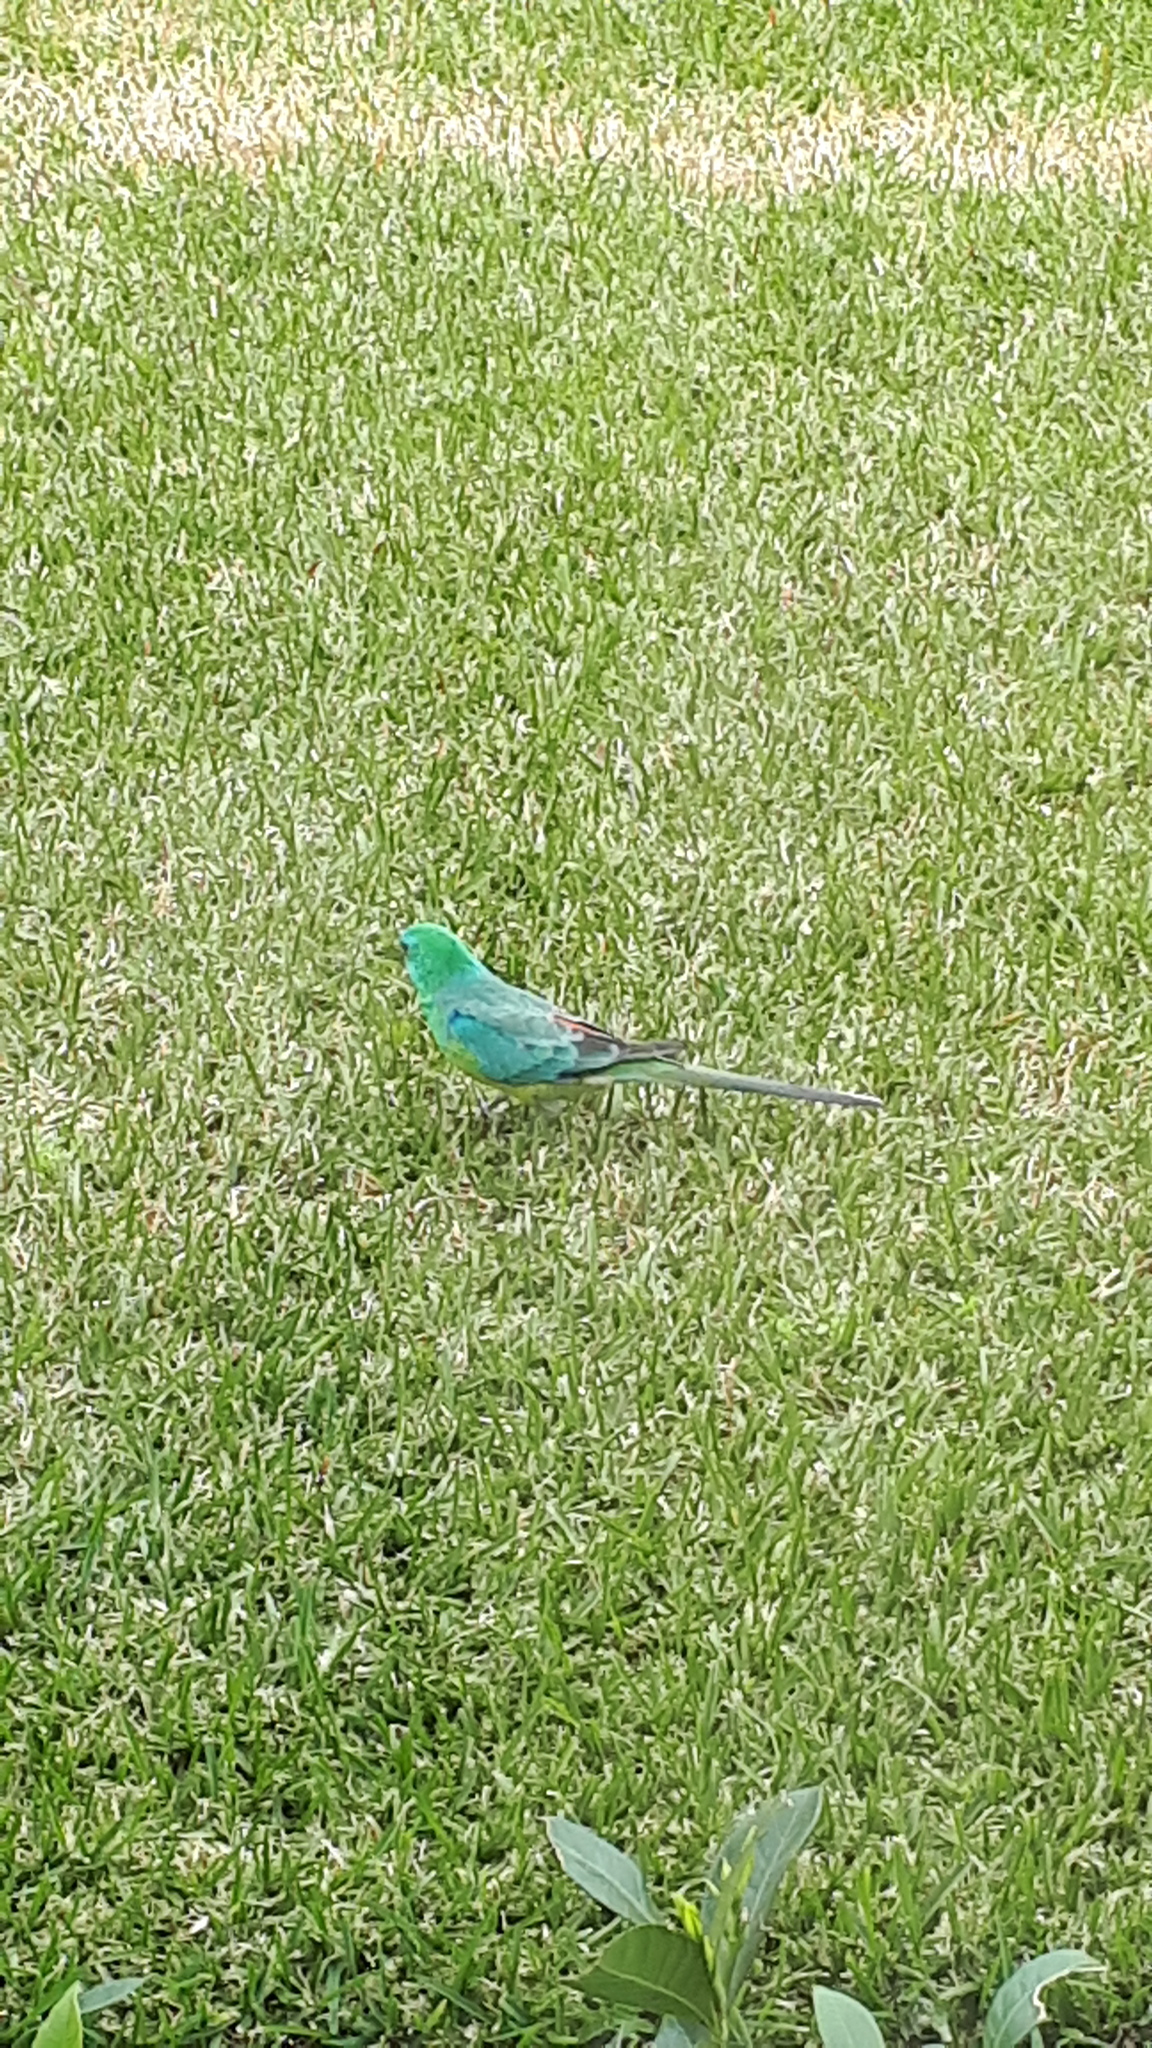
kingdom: Animalia
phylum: Chordata
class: Aves
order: Psittaciformes
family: Psittacidae
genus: Psephotus
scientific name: Psephotus haematonotus
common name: Red-rumped parrot
